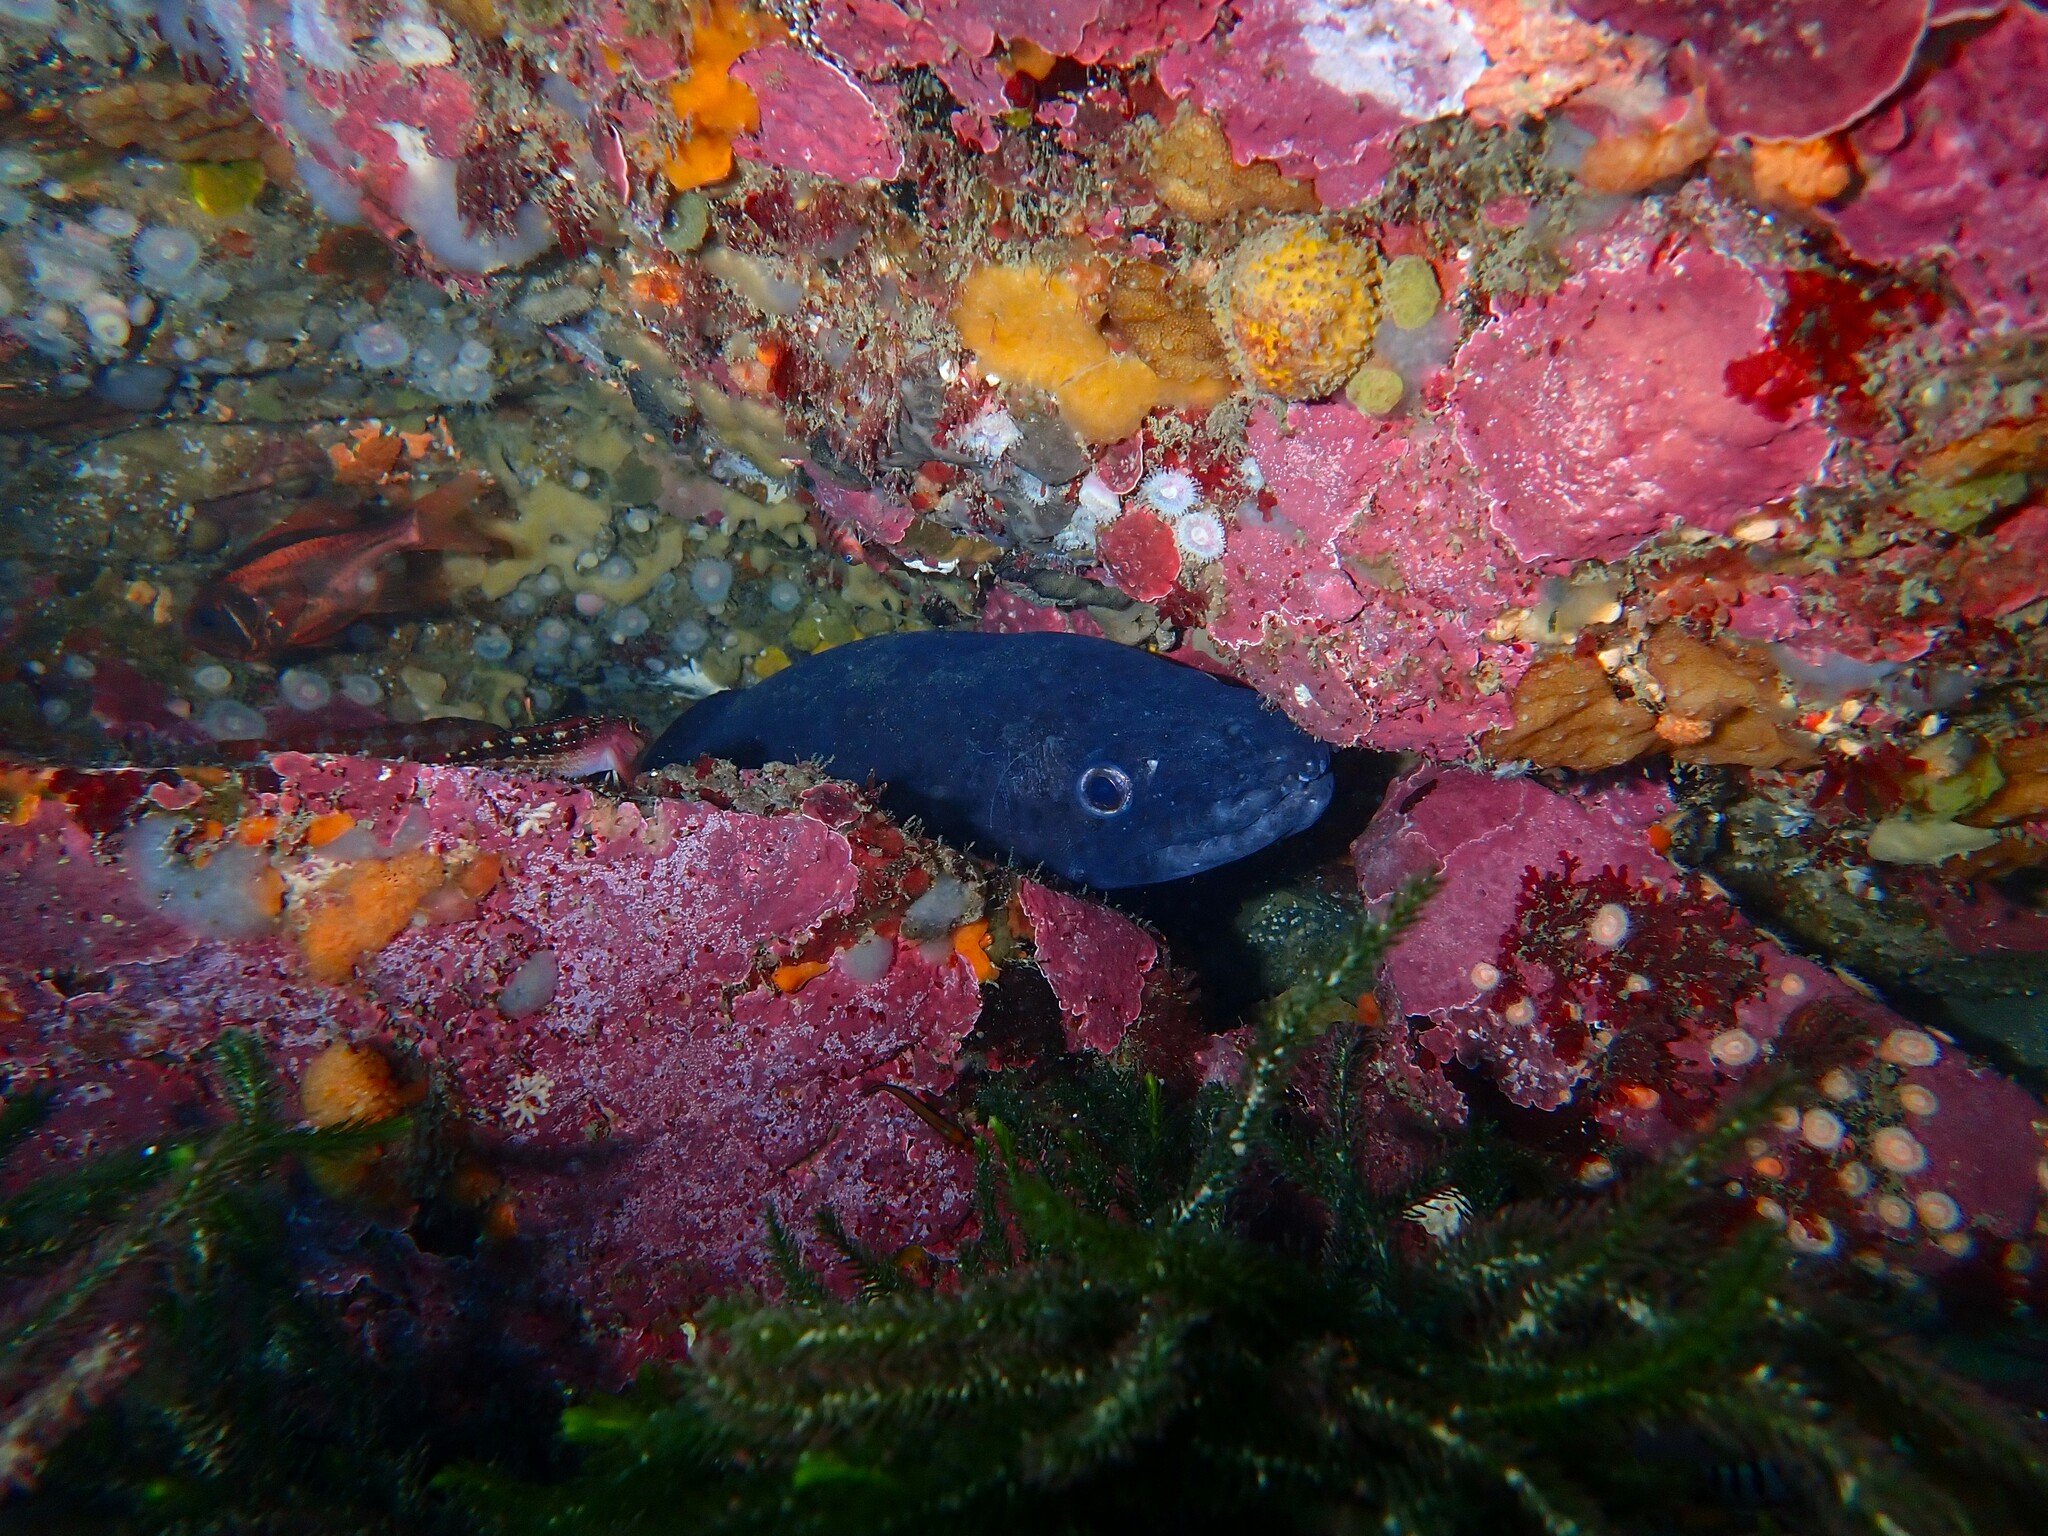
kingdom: Animalia
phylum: Chordata
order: Anguilliformes
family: Congridae
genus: Conger
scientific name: Conger verreauxi
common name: Conger eel
